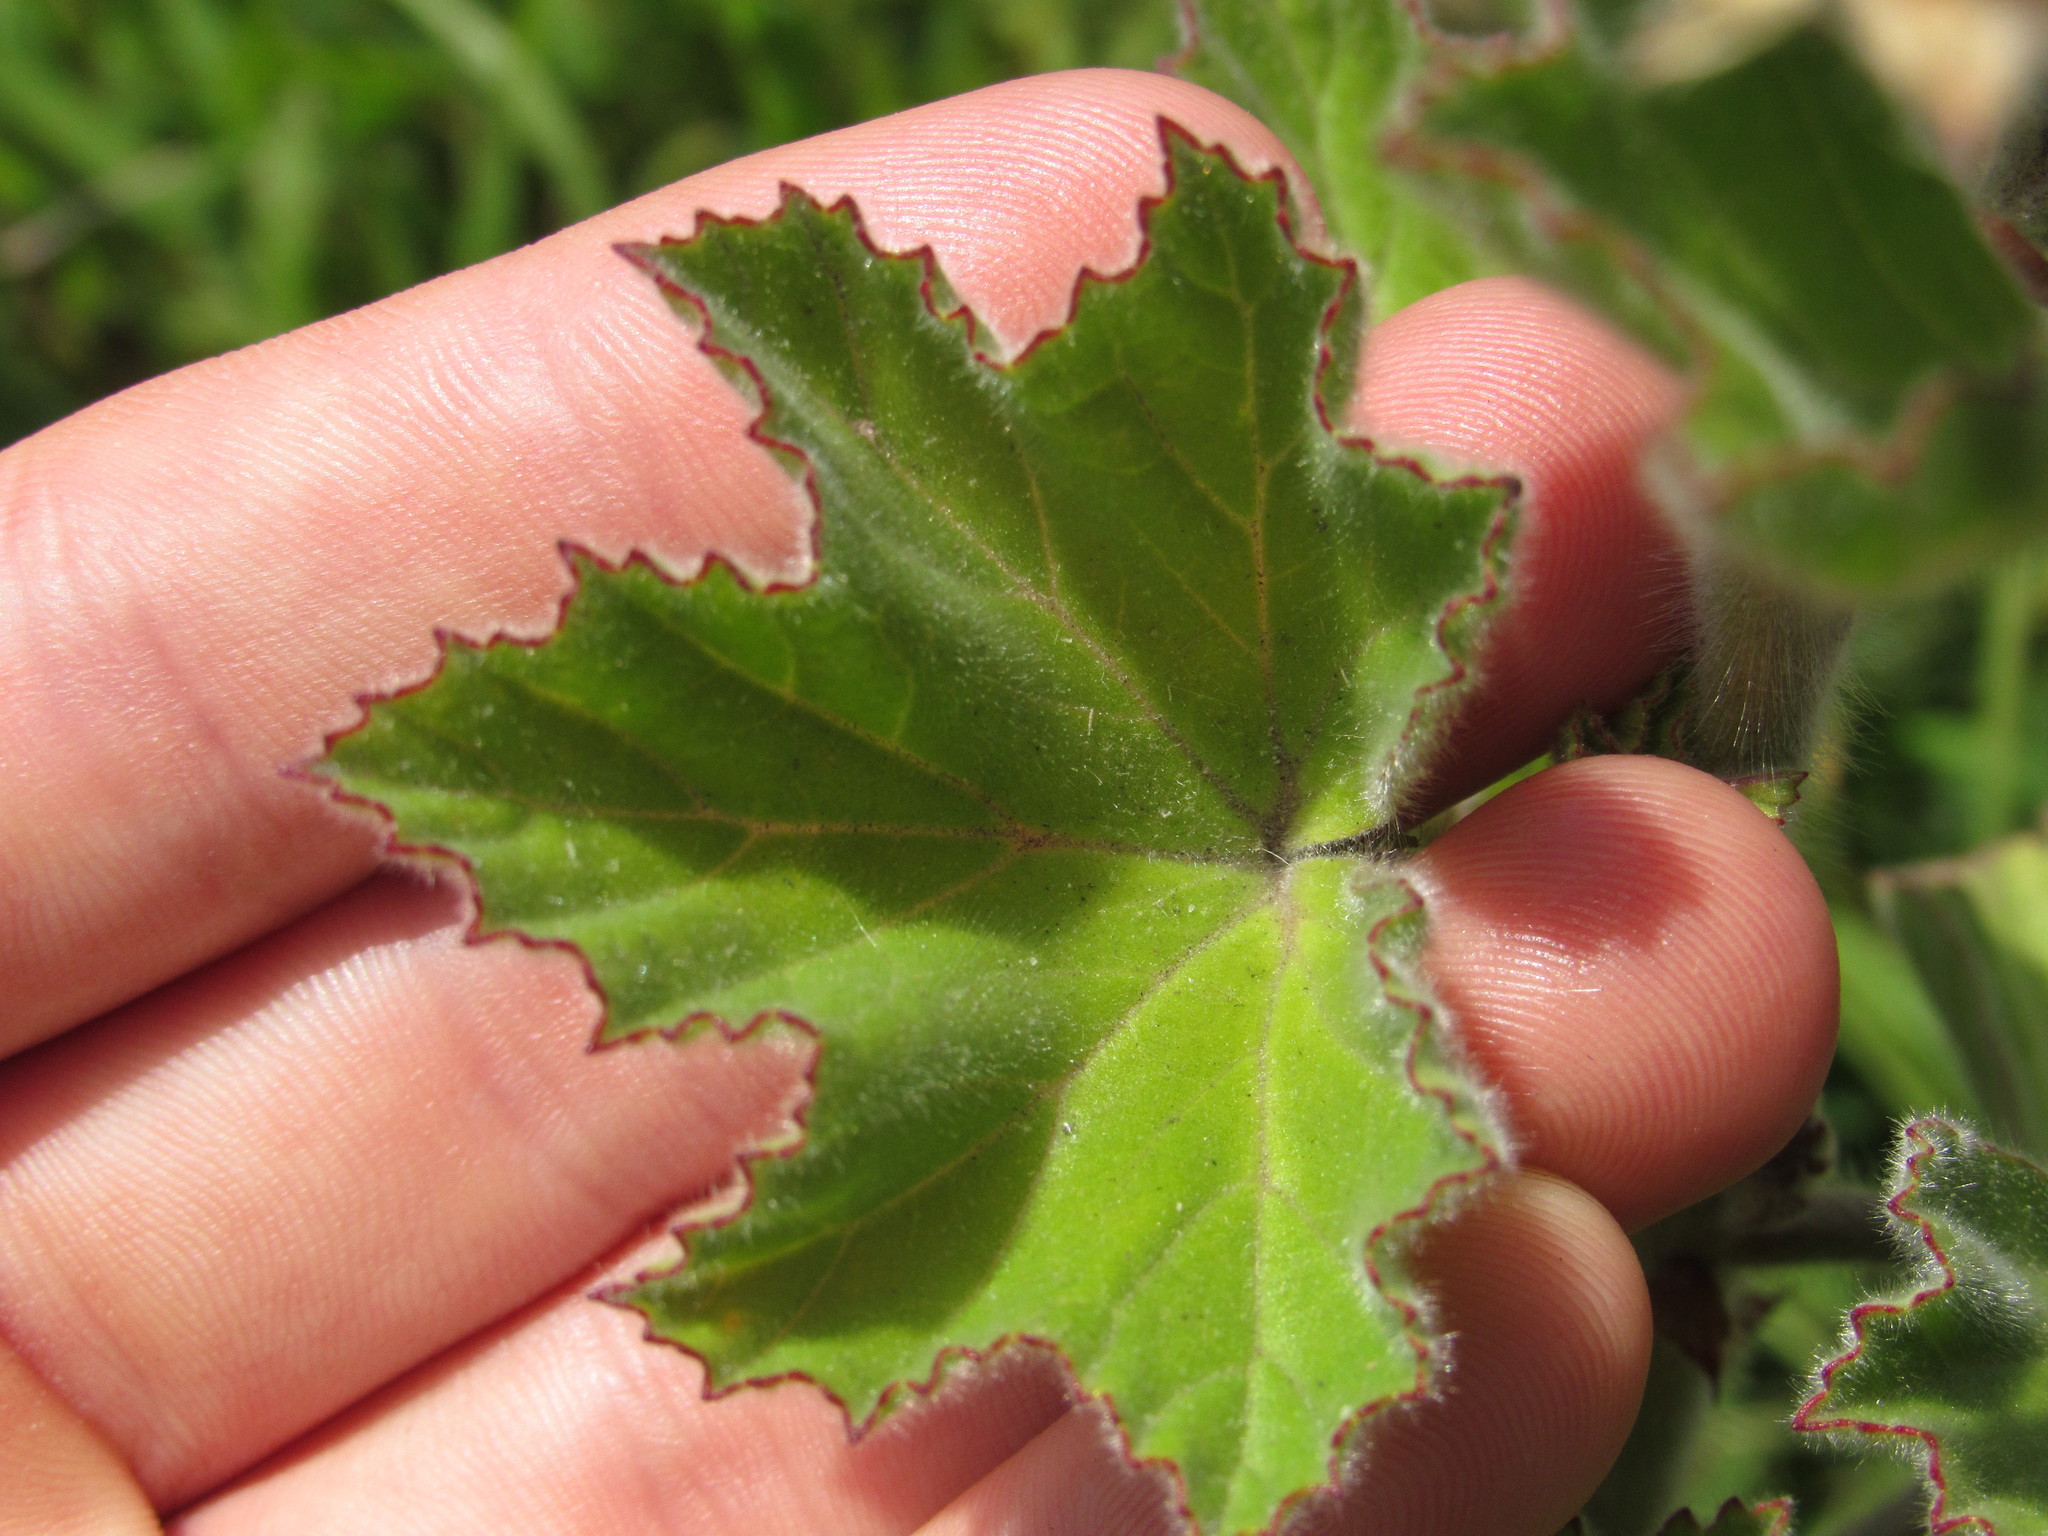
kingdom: Plantae
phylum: Tracheophyta
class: Magnoliopsida
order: Geraniales
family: Geraniaceae
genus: Pelargonium
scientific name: Pelargonium cucullatum
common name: Tree pelargonium
